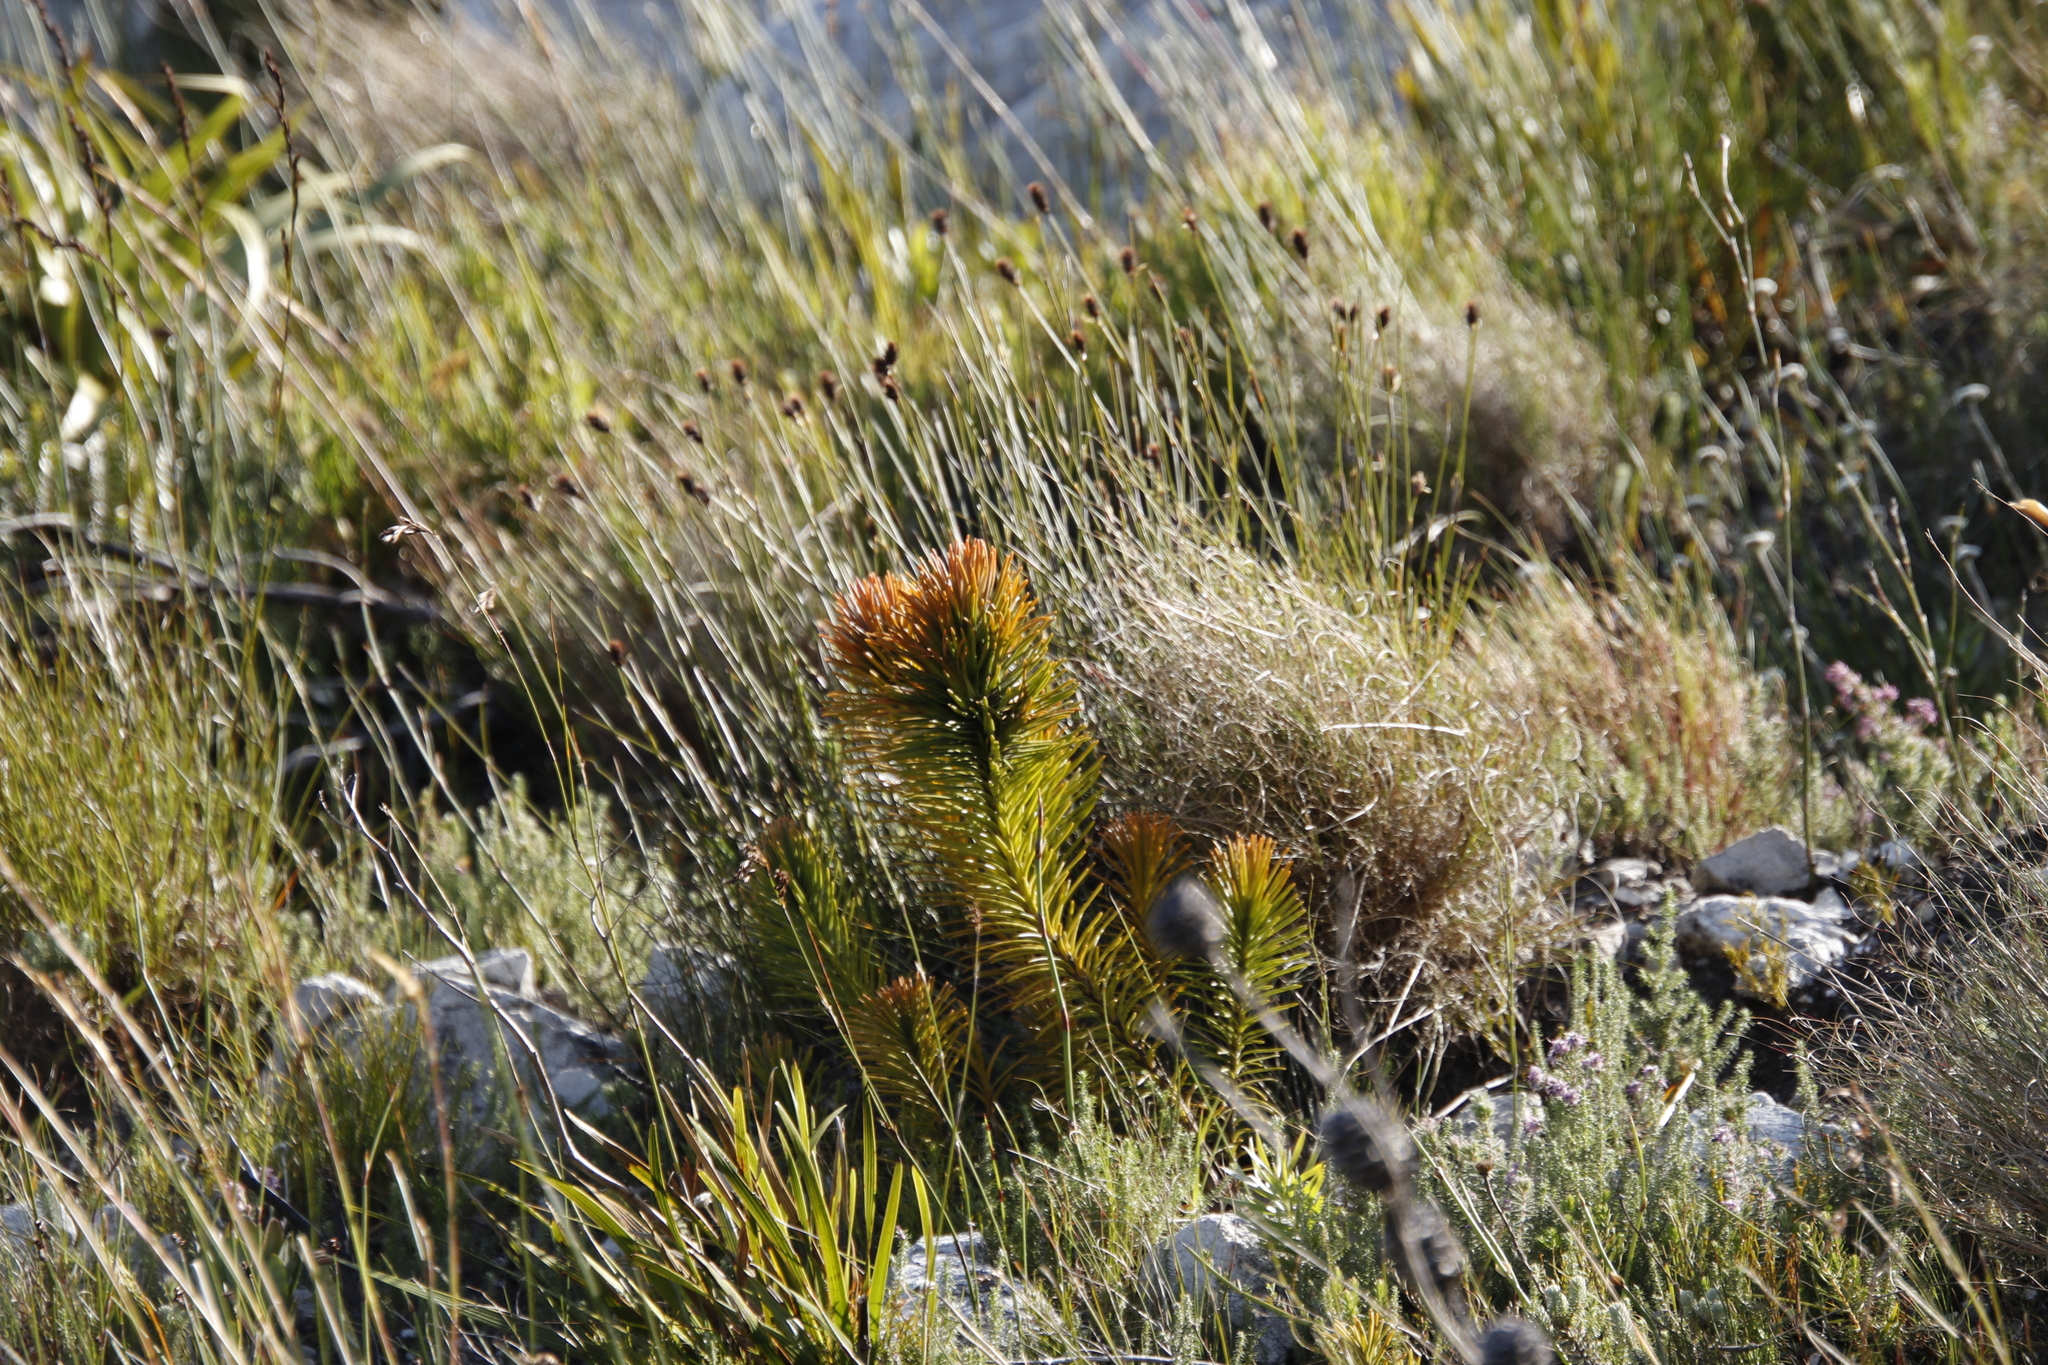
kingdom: Plantae
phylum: Tracheophyta
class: Magnoliopsida
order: Lamiales
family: Stilbaceae
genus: Retzia
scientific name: Retzia capensis
